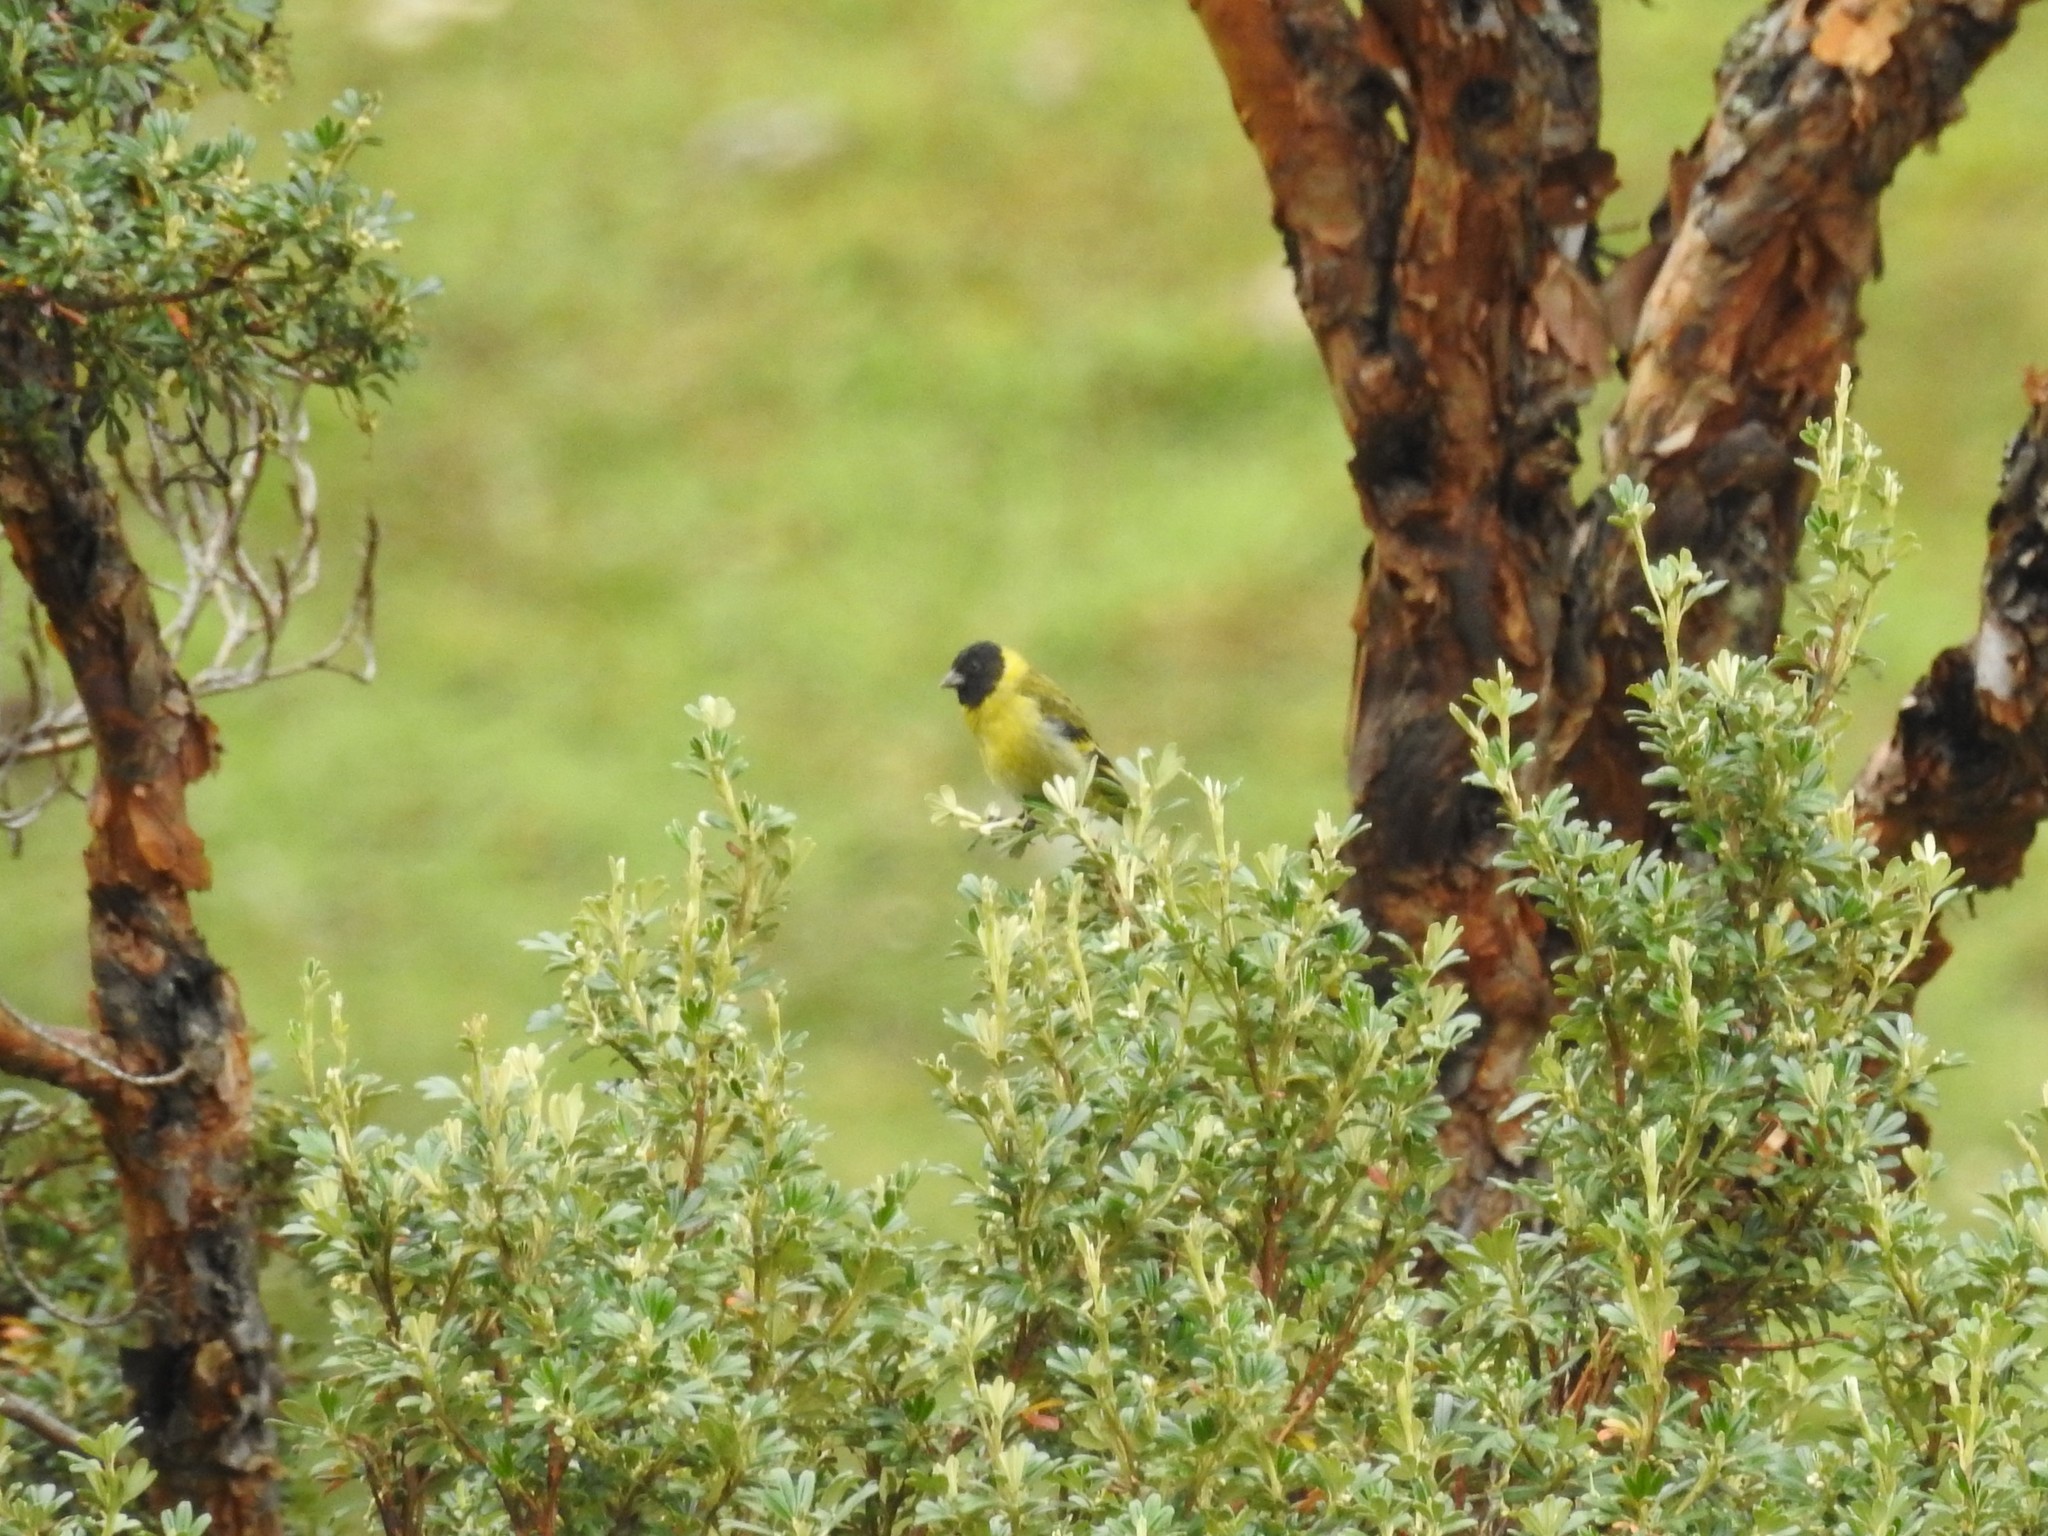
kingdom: Animalia
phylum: Chordata
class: Aves
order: Passeriformes
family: Fringillidae
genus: Spinus
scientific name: Spinus magellanicus
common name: Hooded siskin
